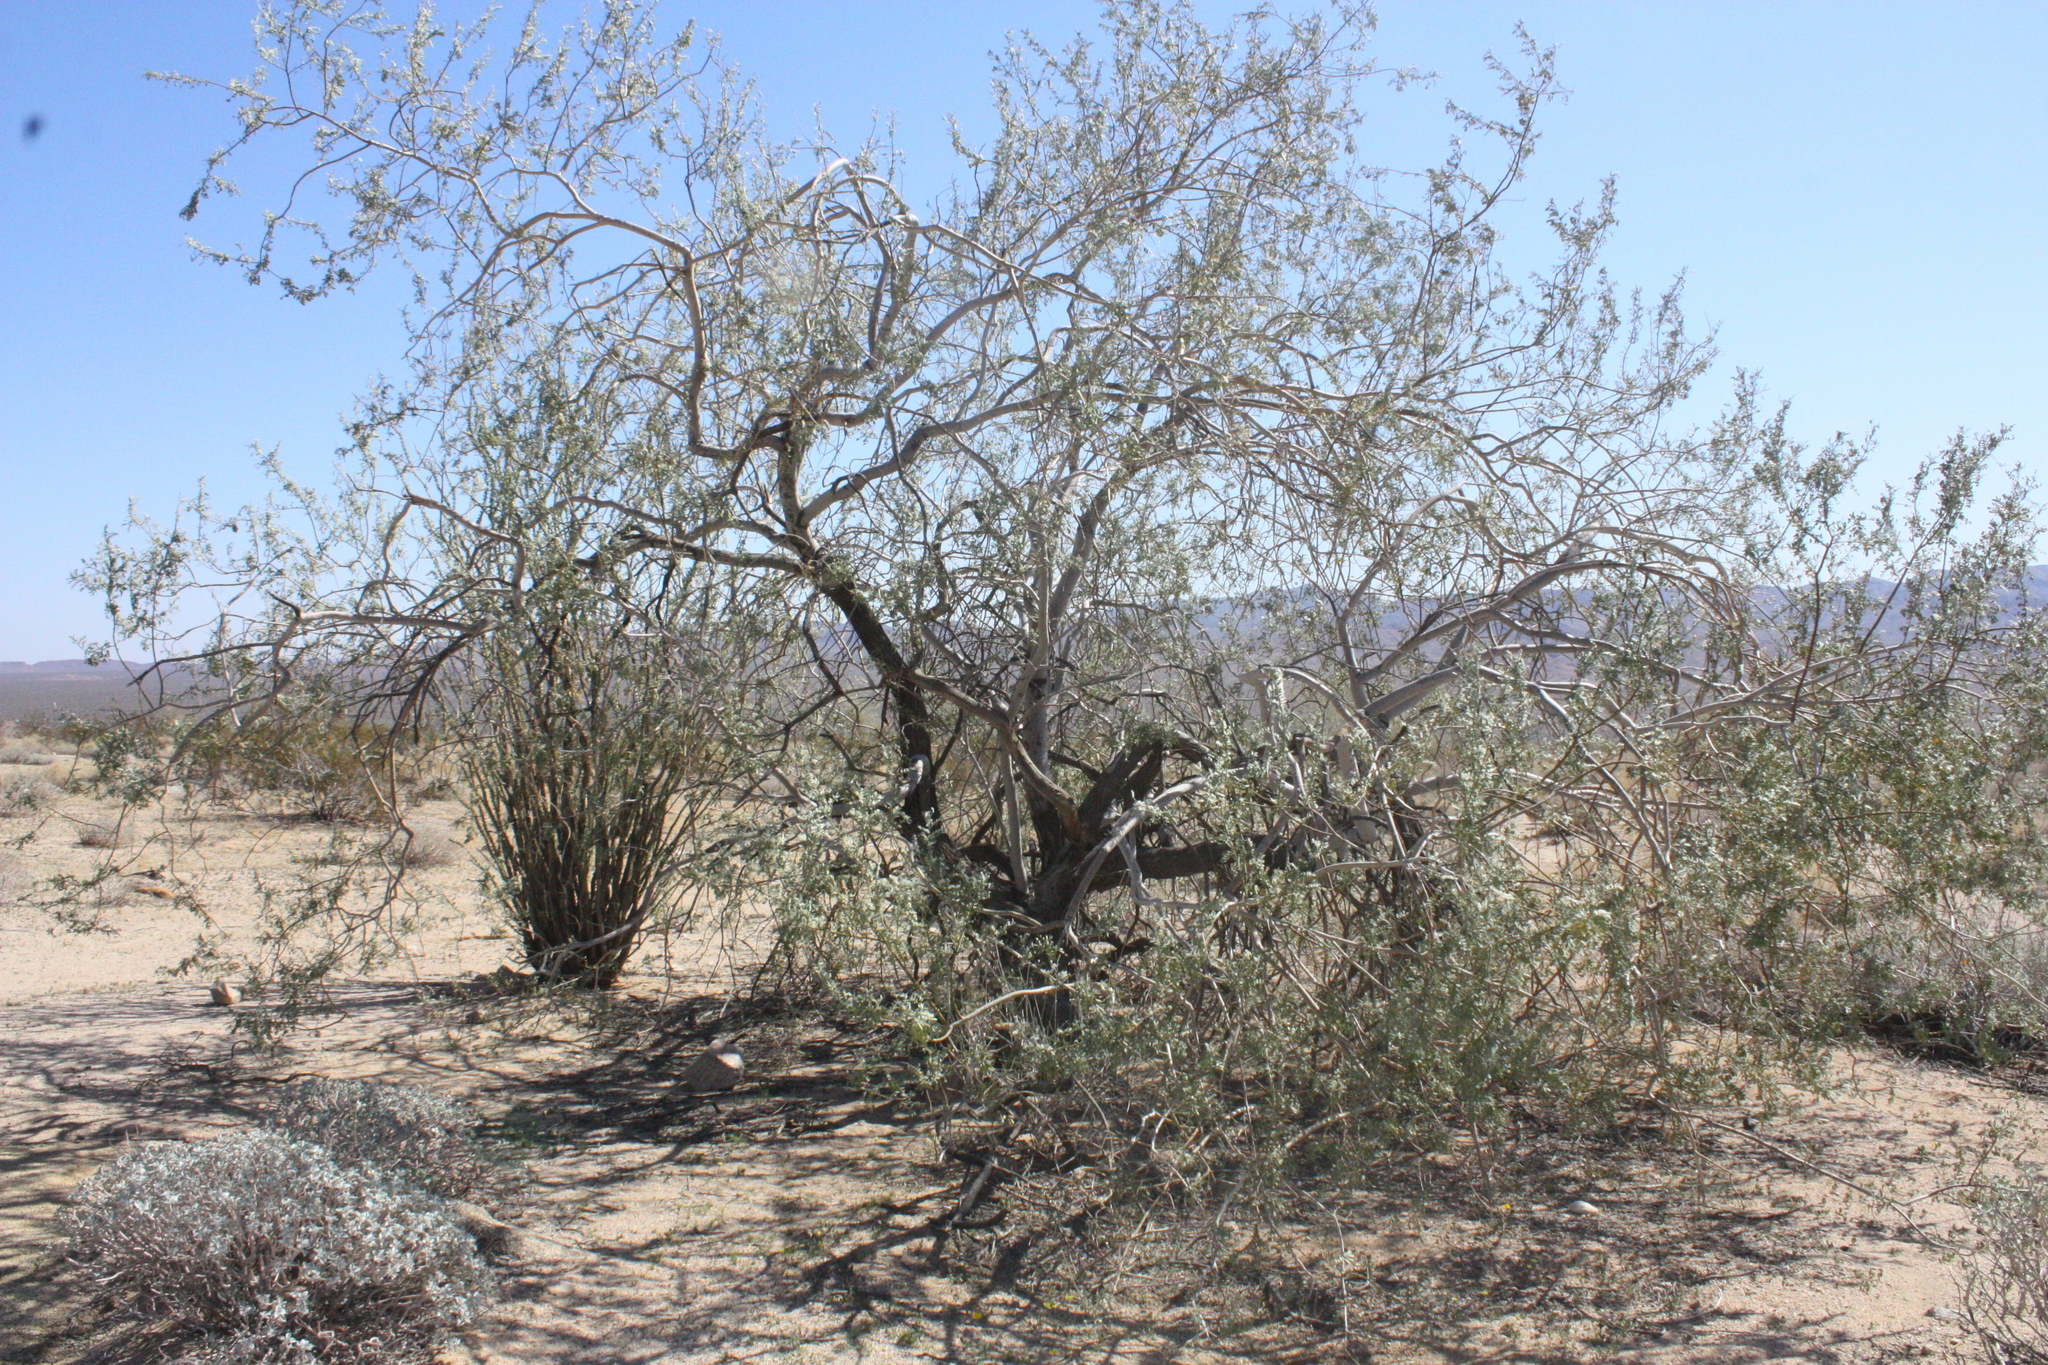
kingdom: Plantae
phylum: Tracheophyta
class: Magnoliopsida
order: Fabales
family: Fabaceae
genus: Olneya
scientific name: Olneya tesota
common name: Desert ironwood
